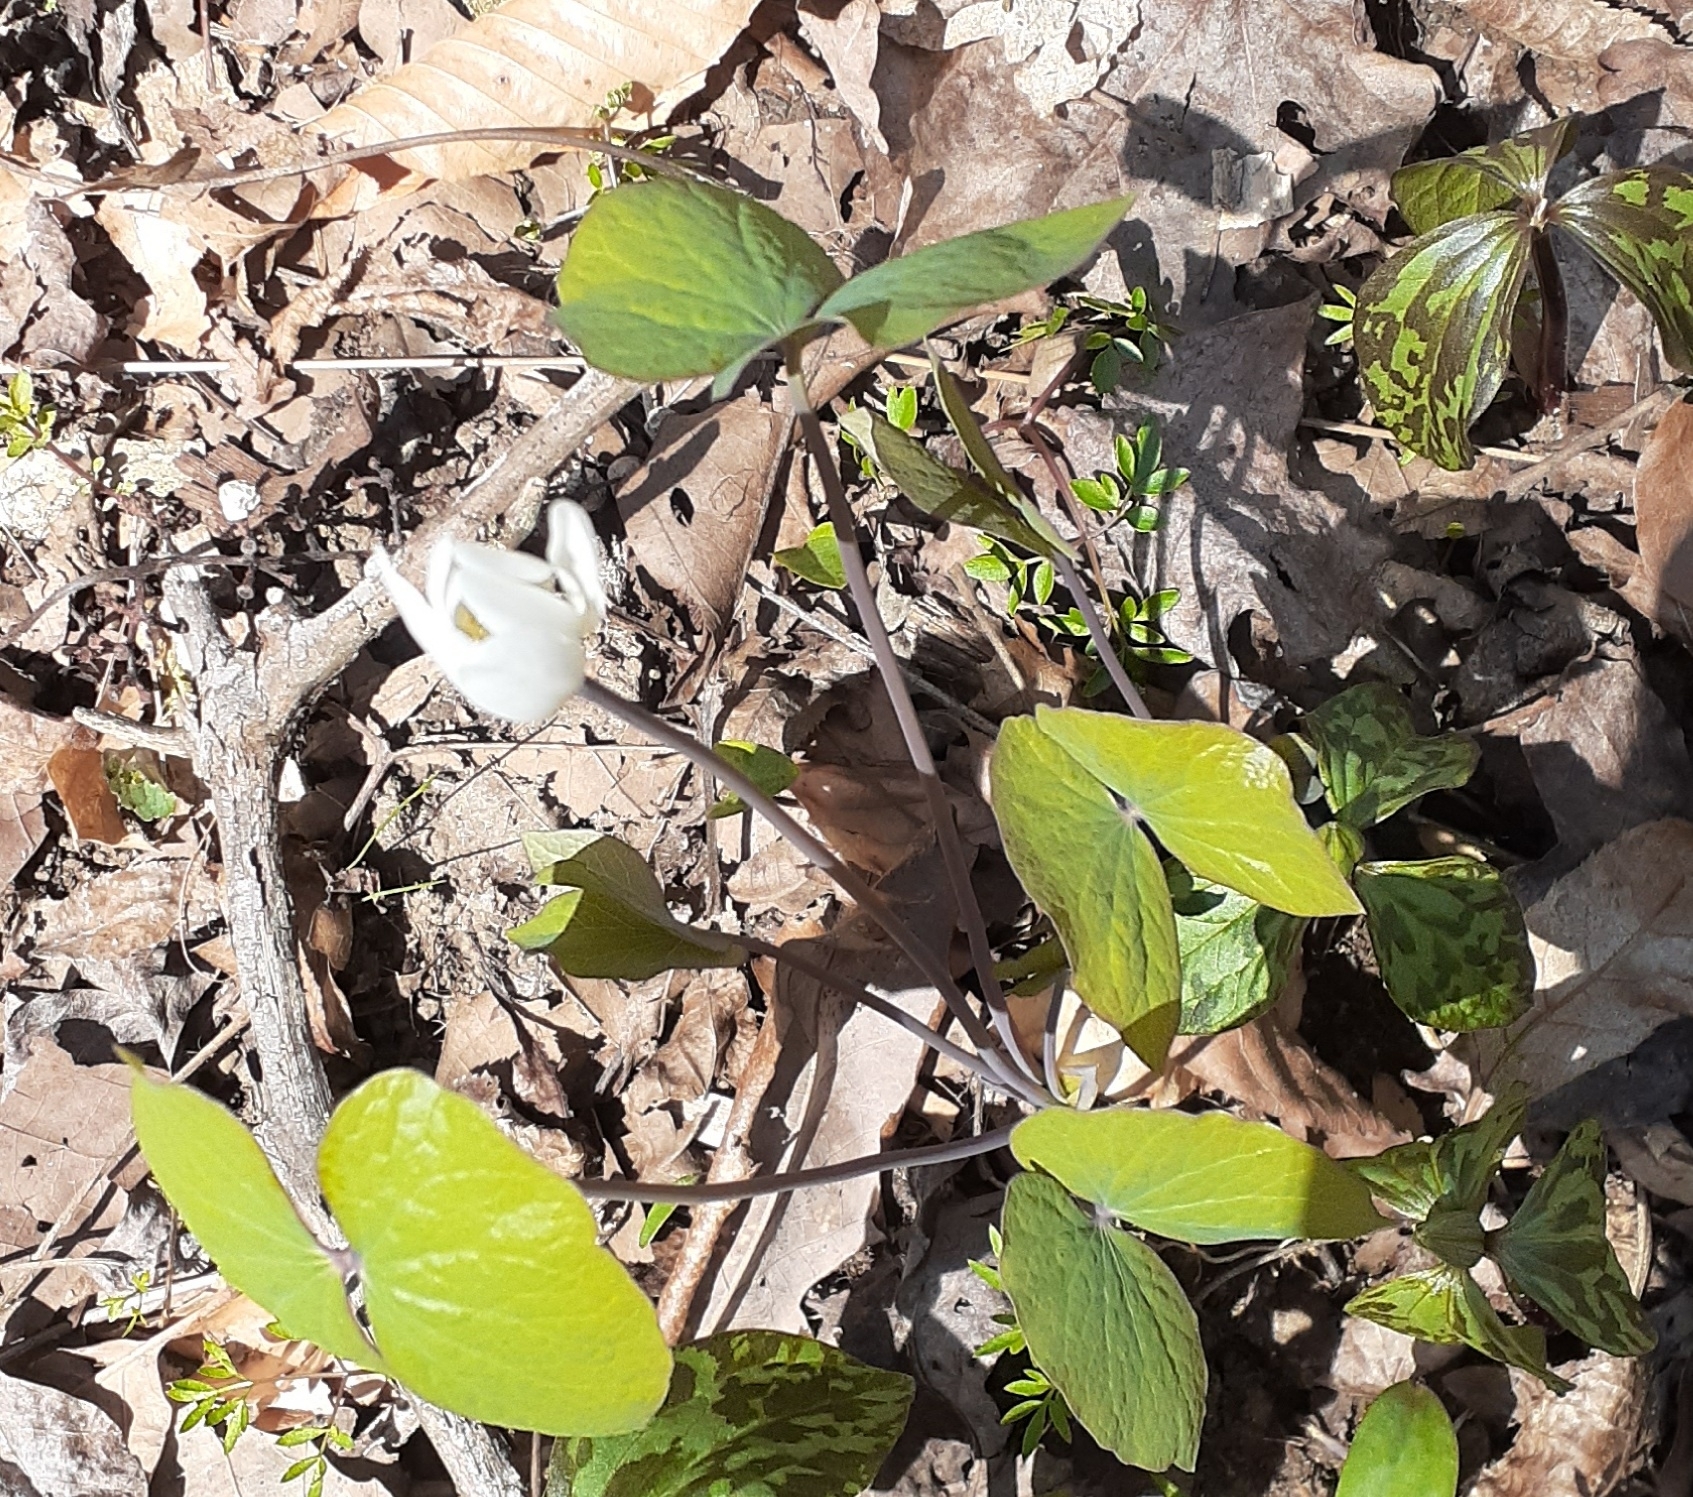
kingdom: Plantae
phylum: Tracheophyta
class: Magnoliopsida
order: Ranunculales
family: Berberidaceae
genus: Jeffersonia
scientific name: Jeffersonia diphylla
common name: Rheumatism-root
